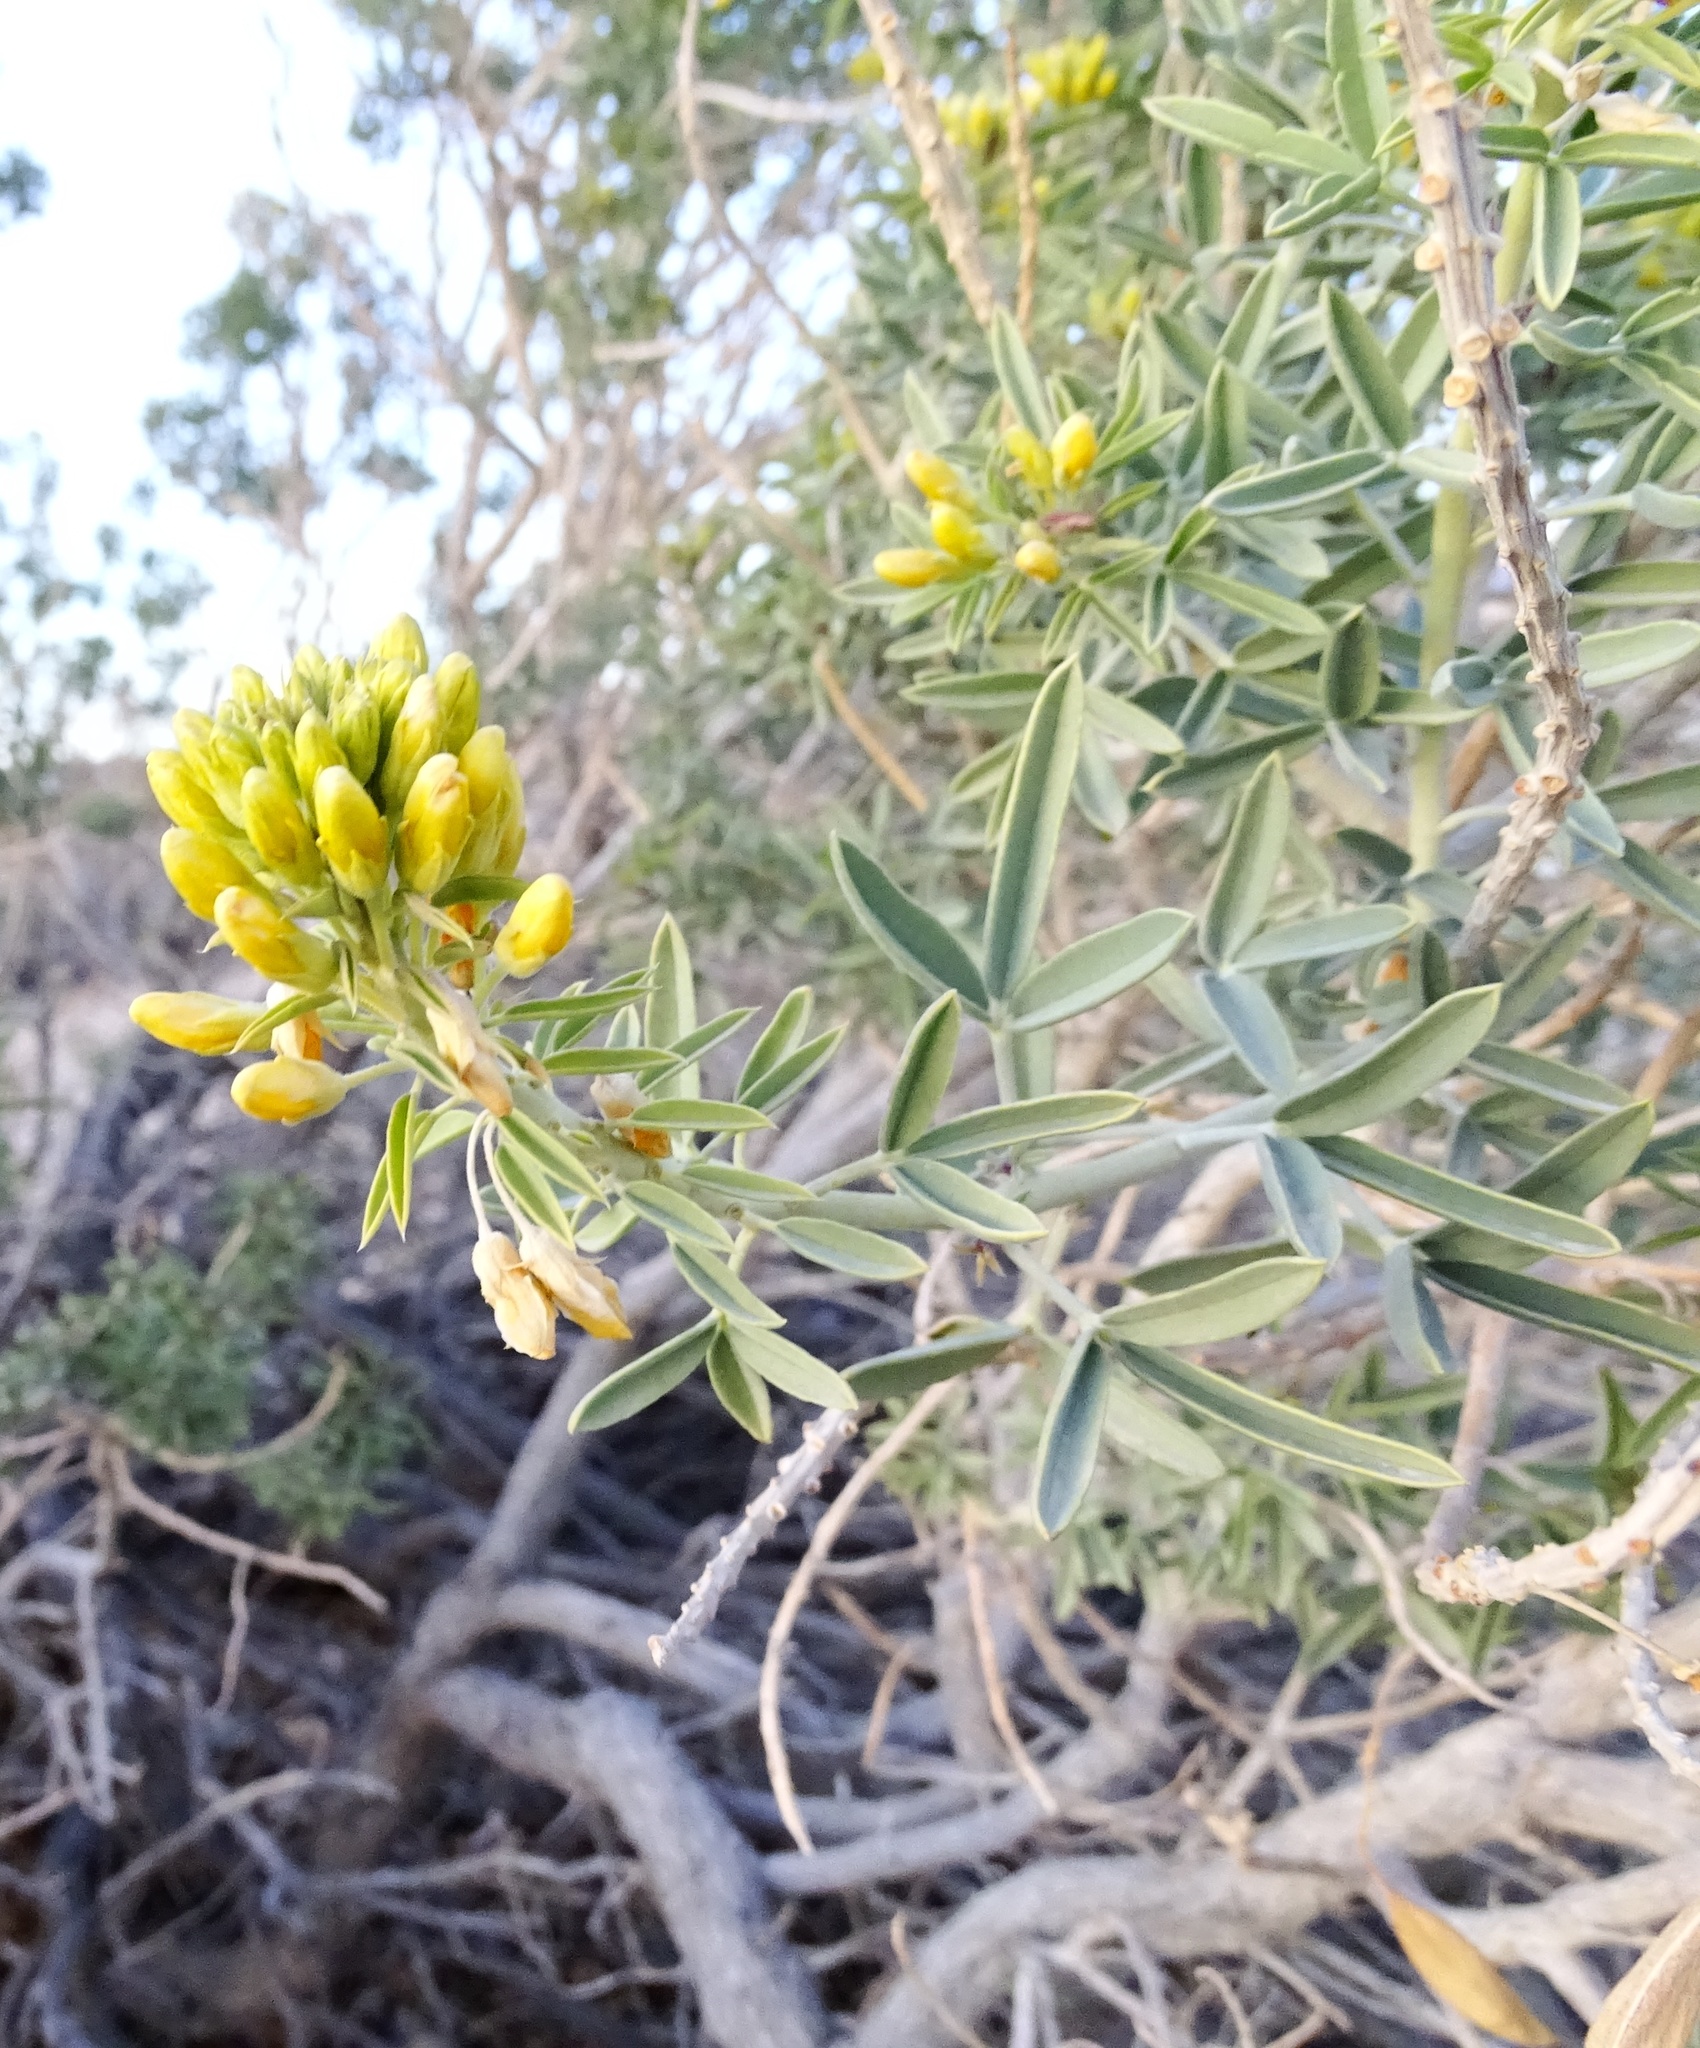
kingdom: Plantae
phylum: Tracheophyta
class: Magnoliopsida
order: Brassicales
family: Cleomaceae
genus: Cleomella
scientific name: Cleomella arborea
